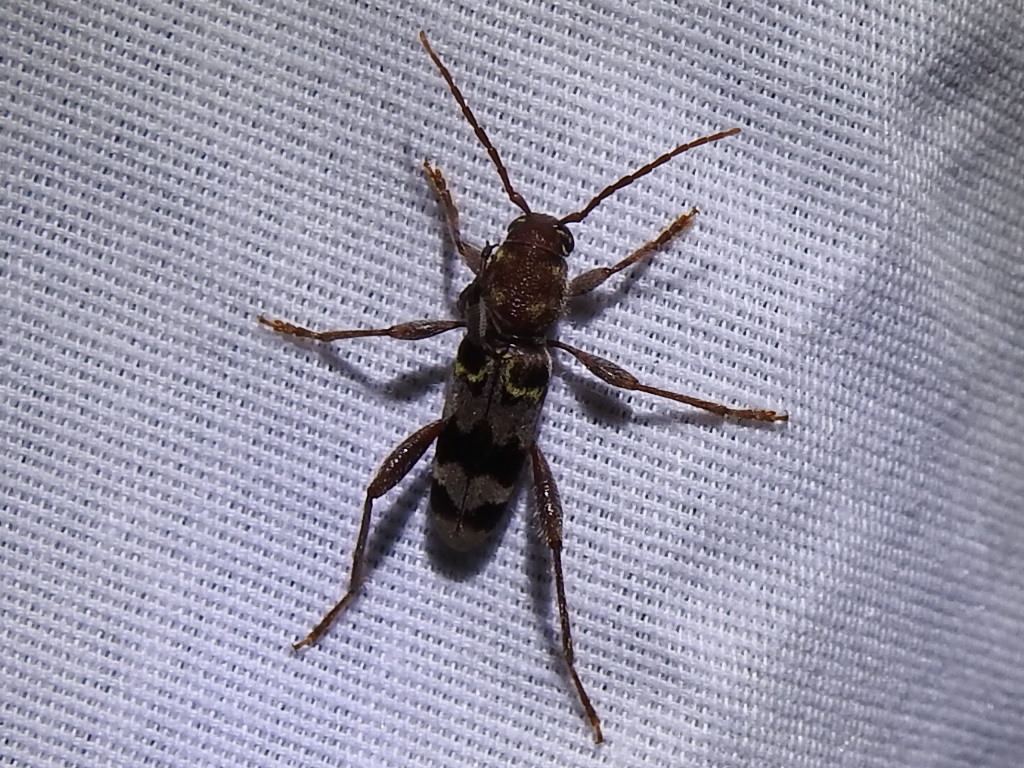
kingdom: Animalia
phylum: Arthropoda
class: Insecta
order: Coleoptera
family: Cerambycidae
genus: Xylotrechus
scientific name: Xylotrechus colonus
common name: Long-horned beetle
